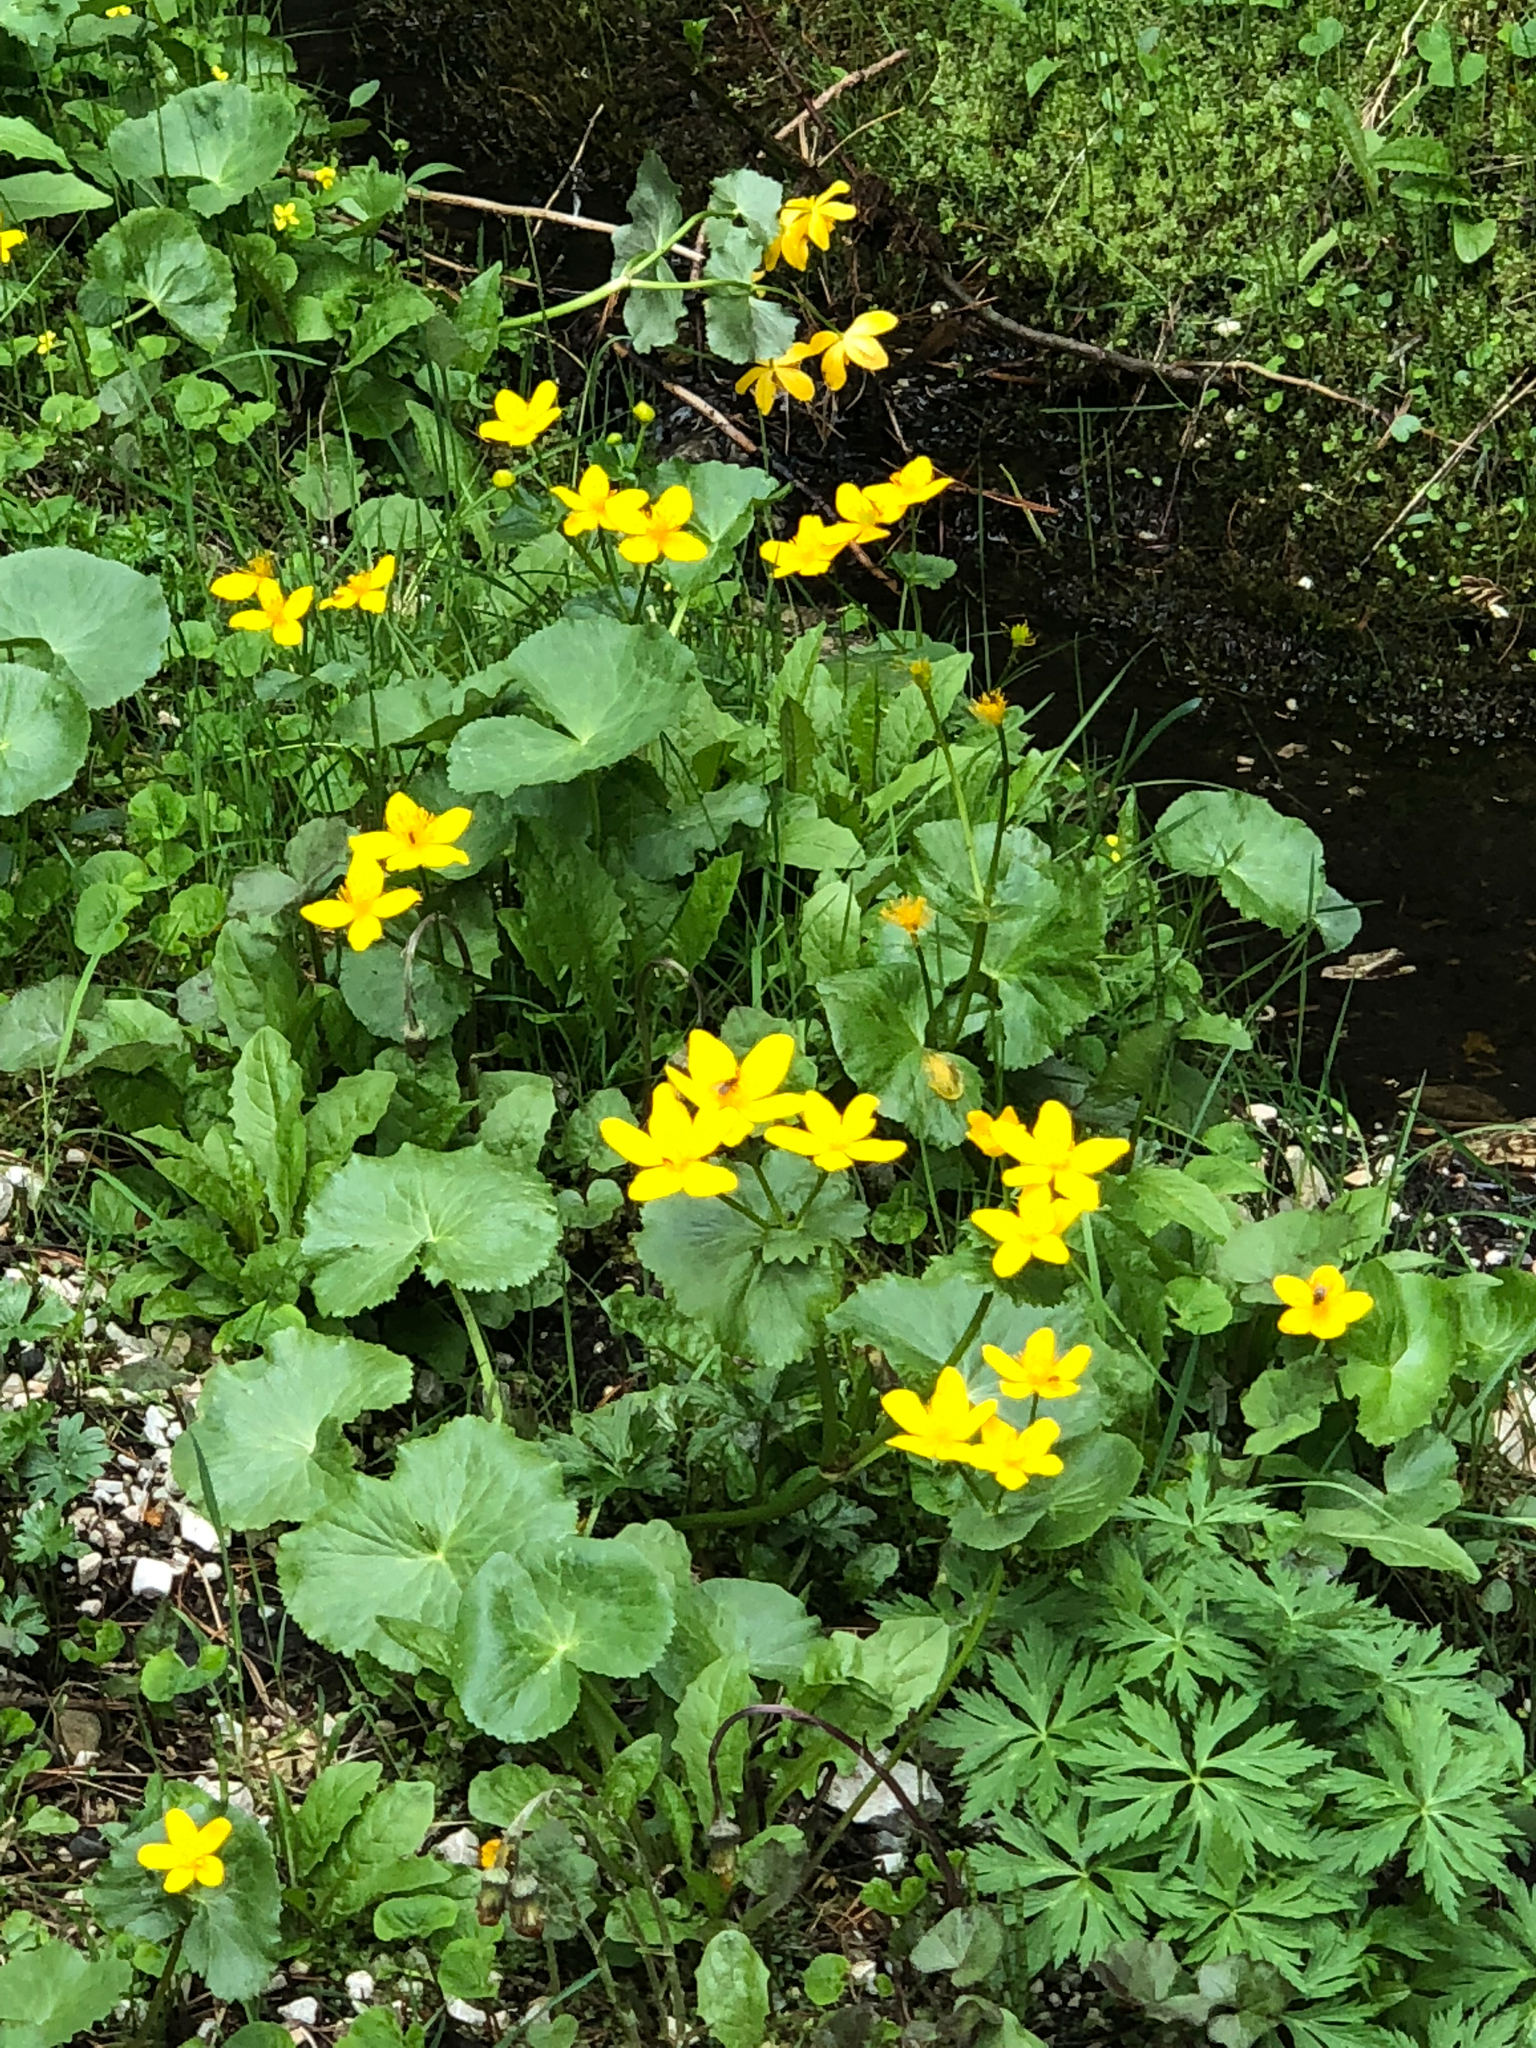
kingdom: Plantae
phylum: Tracheophyta
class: Magnoliopsida
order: Ranunculales
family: Ranunculaceae
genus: Caltha
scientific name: Caltha palustris
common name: Marsh marigold
